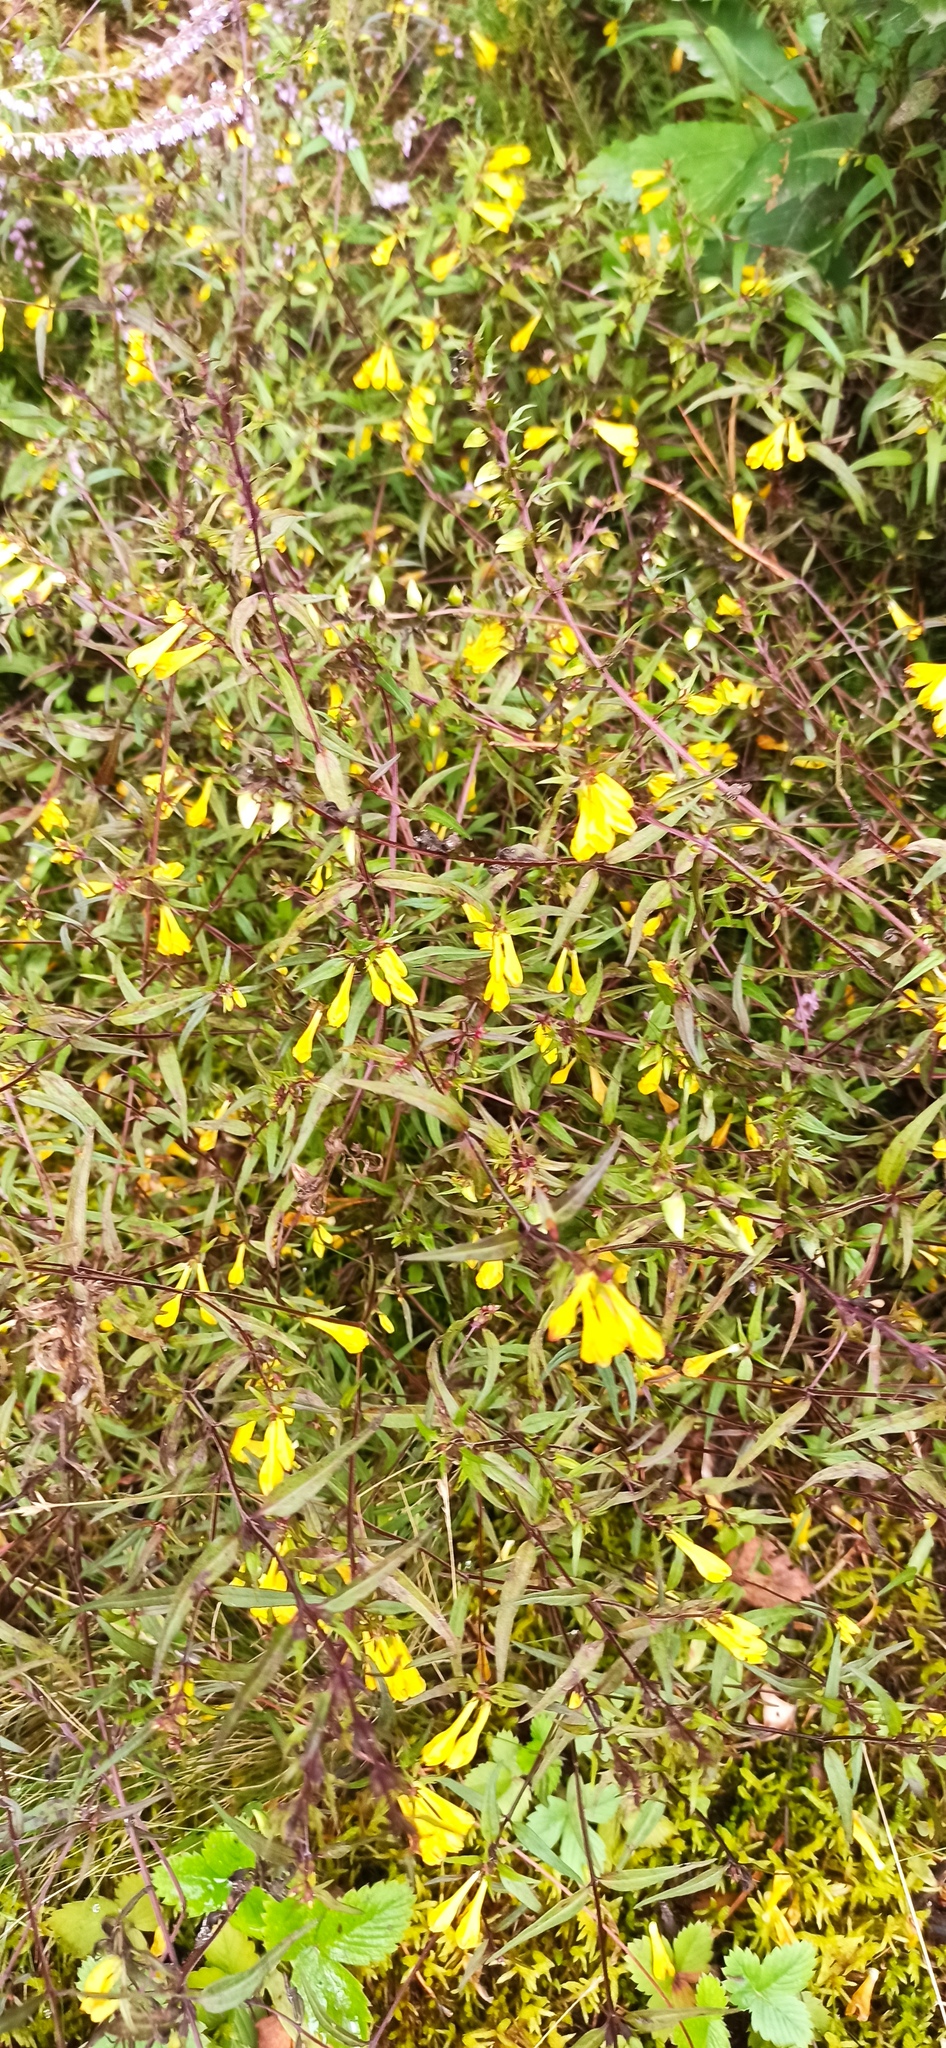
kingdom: Plantae
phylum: Tracheophyta
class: Magnoliopsida
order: Lamiales
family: Orobanchaceae
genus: Melampyrum
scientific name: Melampyrum pratense
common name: Common cow-wheat
